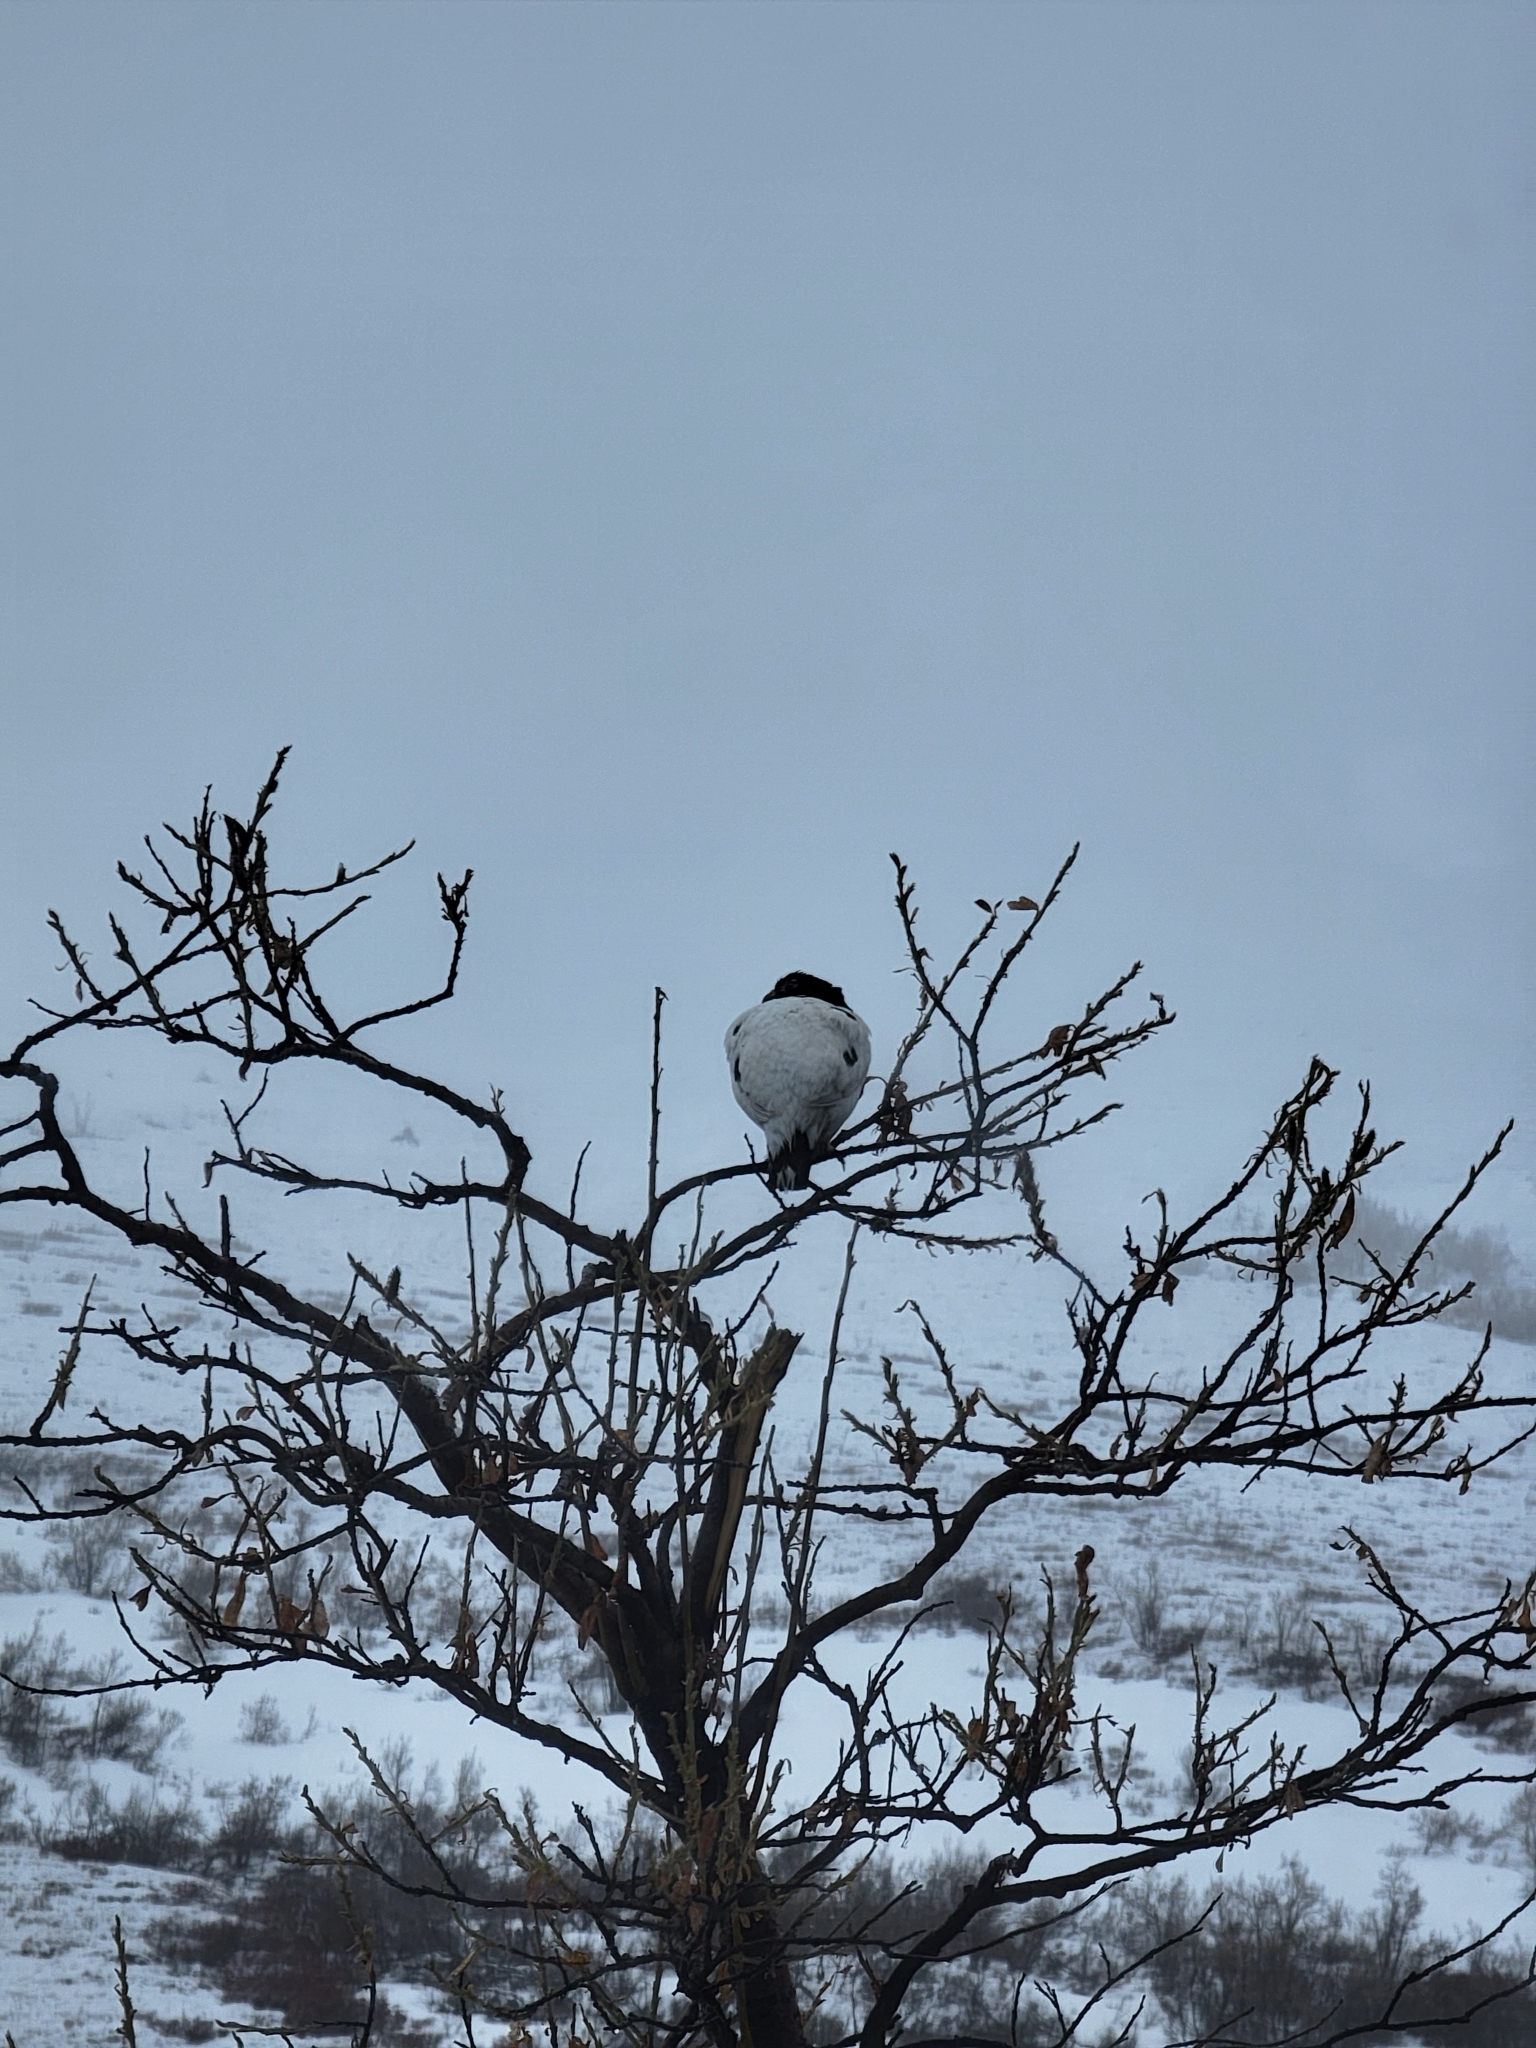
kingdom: Animalia
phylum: Chordata
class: Aves
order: Galliformes
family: Phasianidae
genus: Lagopus
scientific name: Lagopus lagopus
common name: Willow ptarmigan
